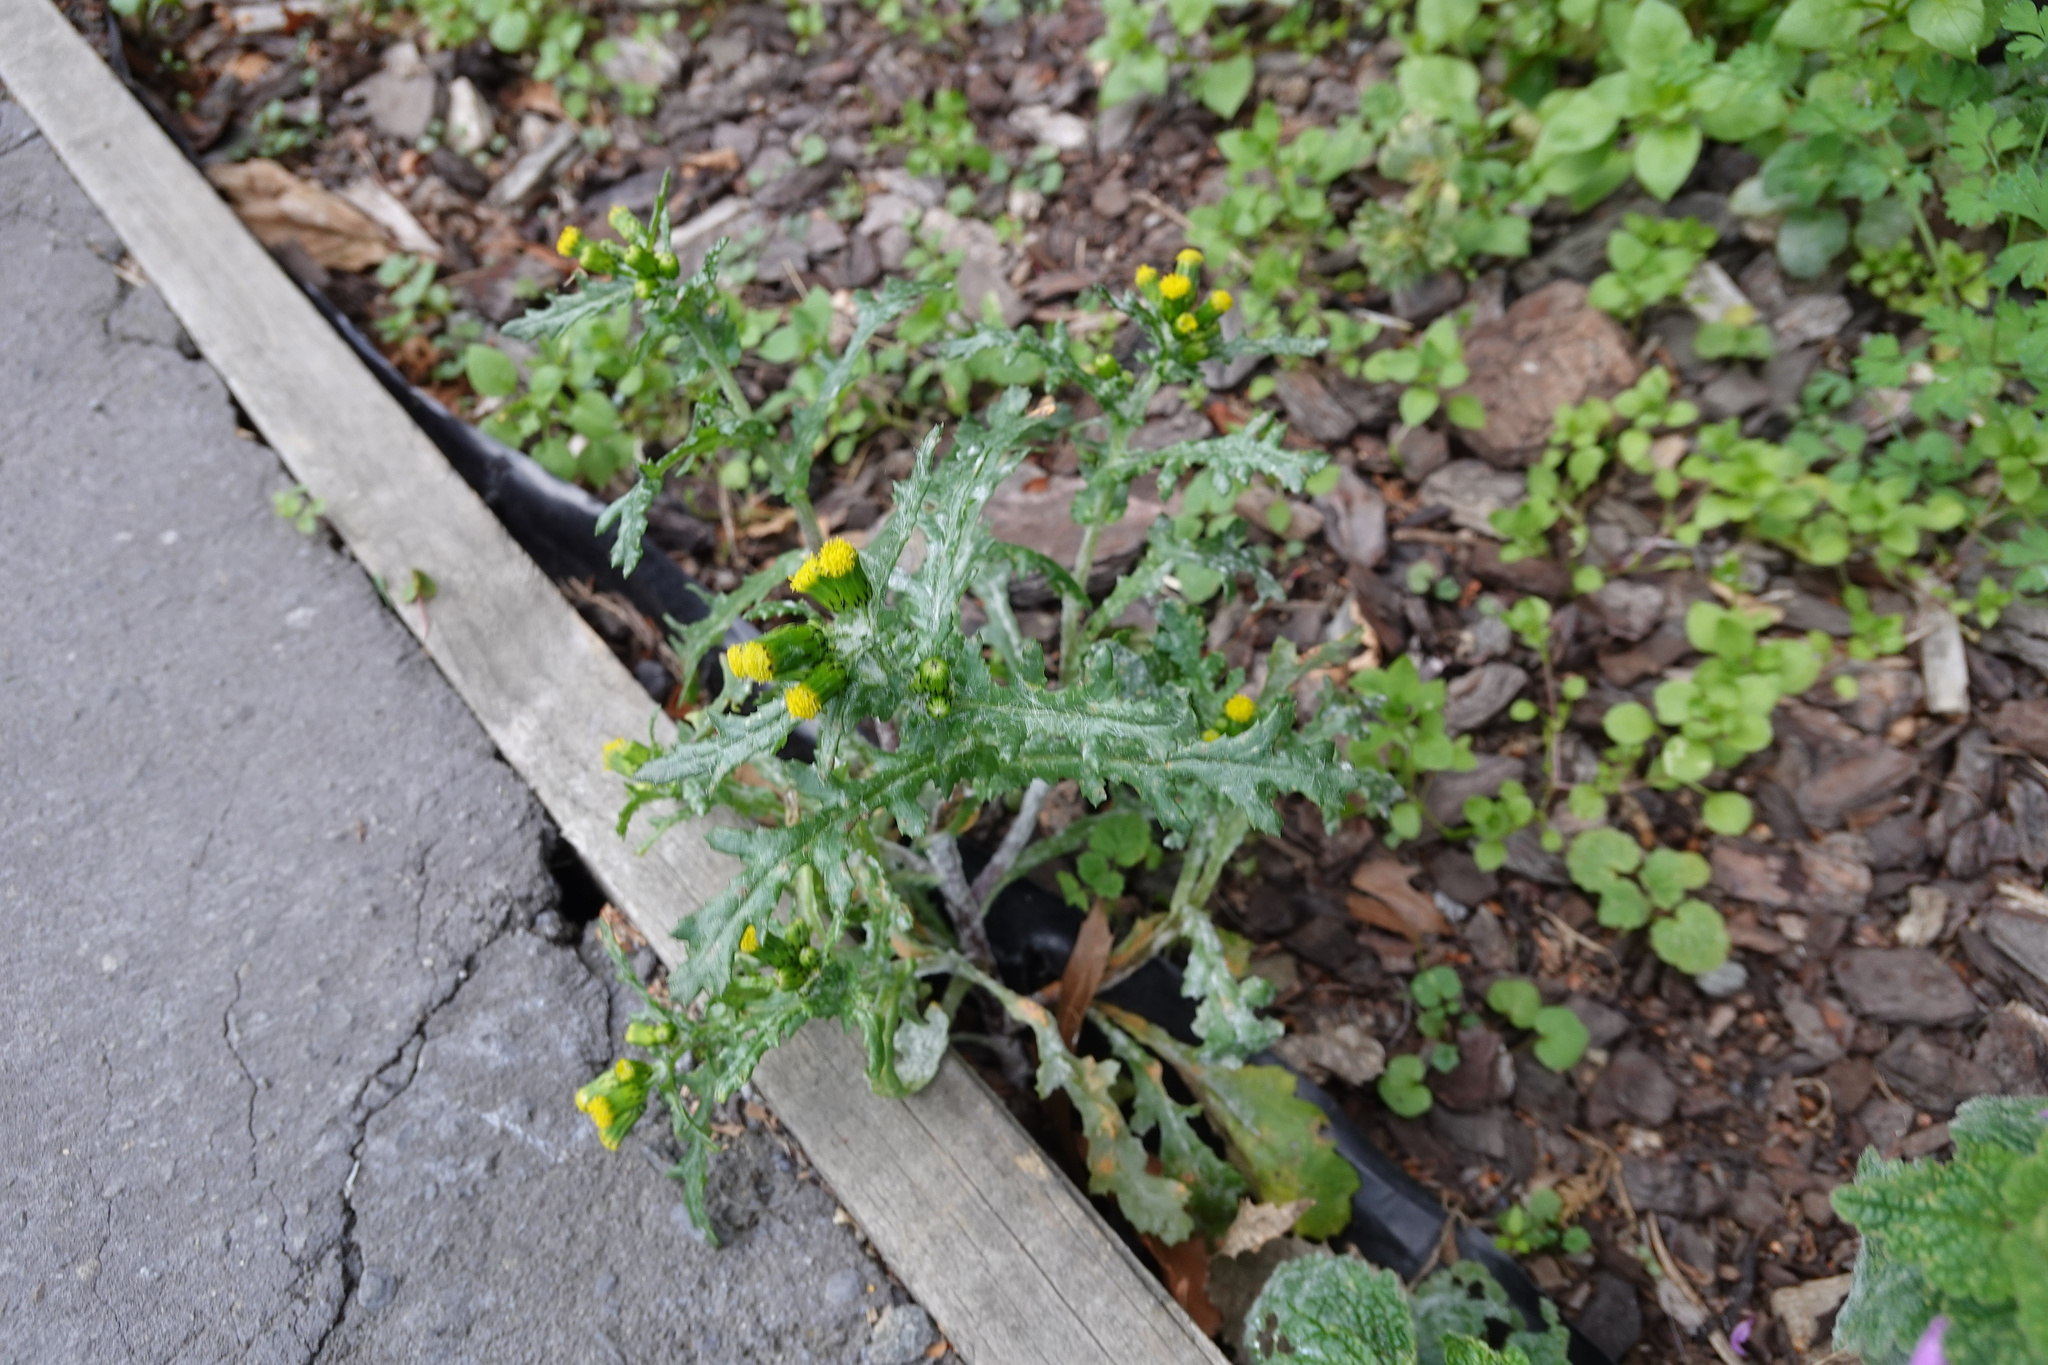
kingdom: Plantae
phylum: Tracheophyta
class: Magnoliopsida
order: Asterales
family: Asteraceae
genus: Senecio
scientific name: Senecio vulgaris
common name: Old-man-in-the-spring
